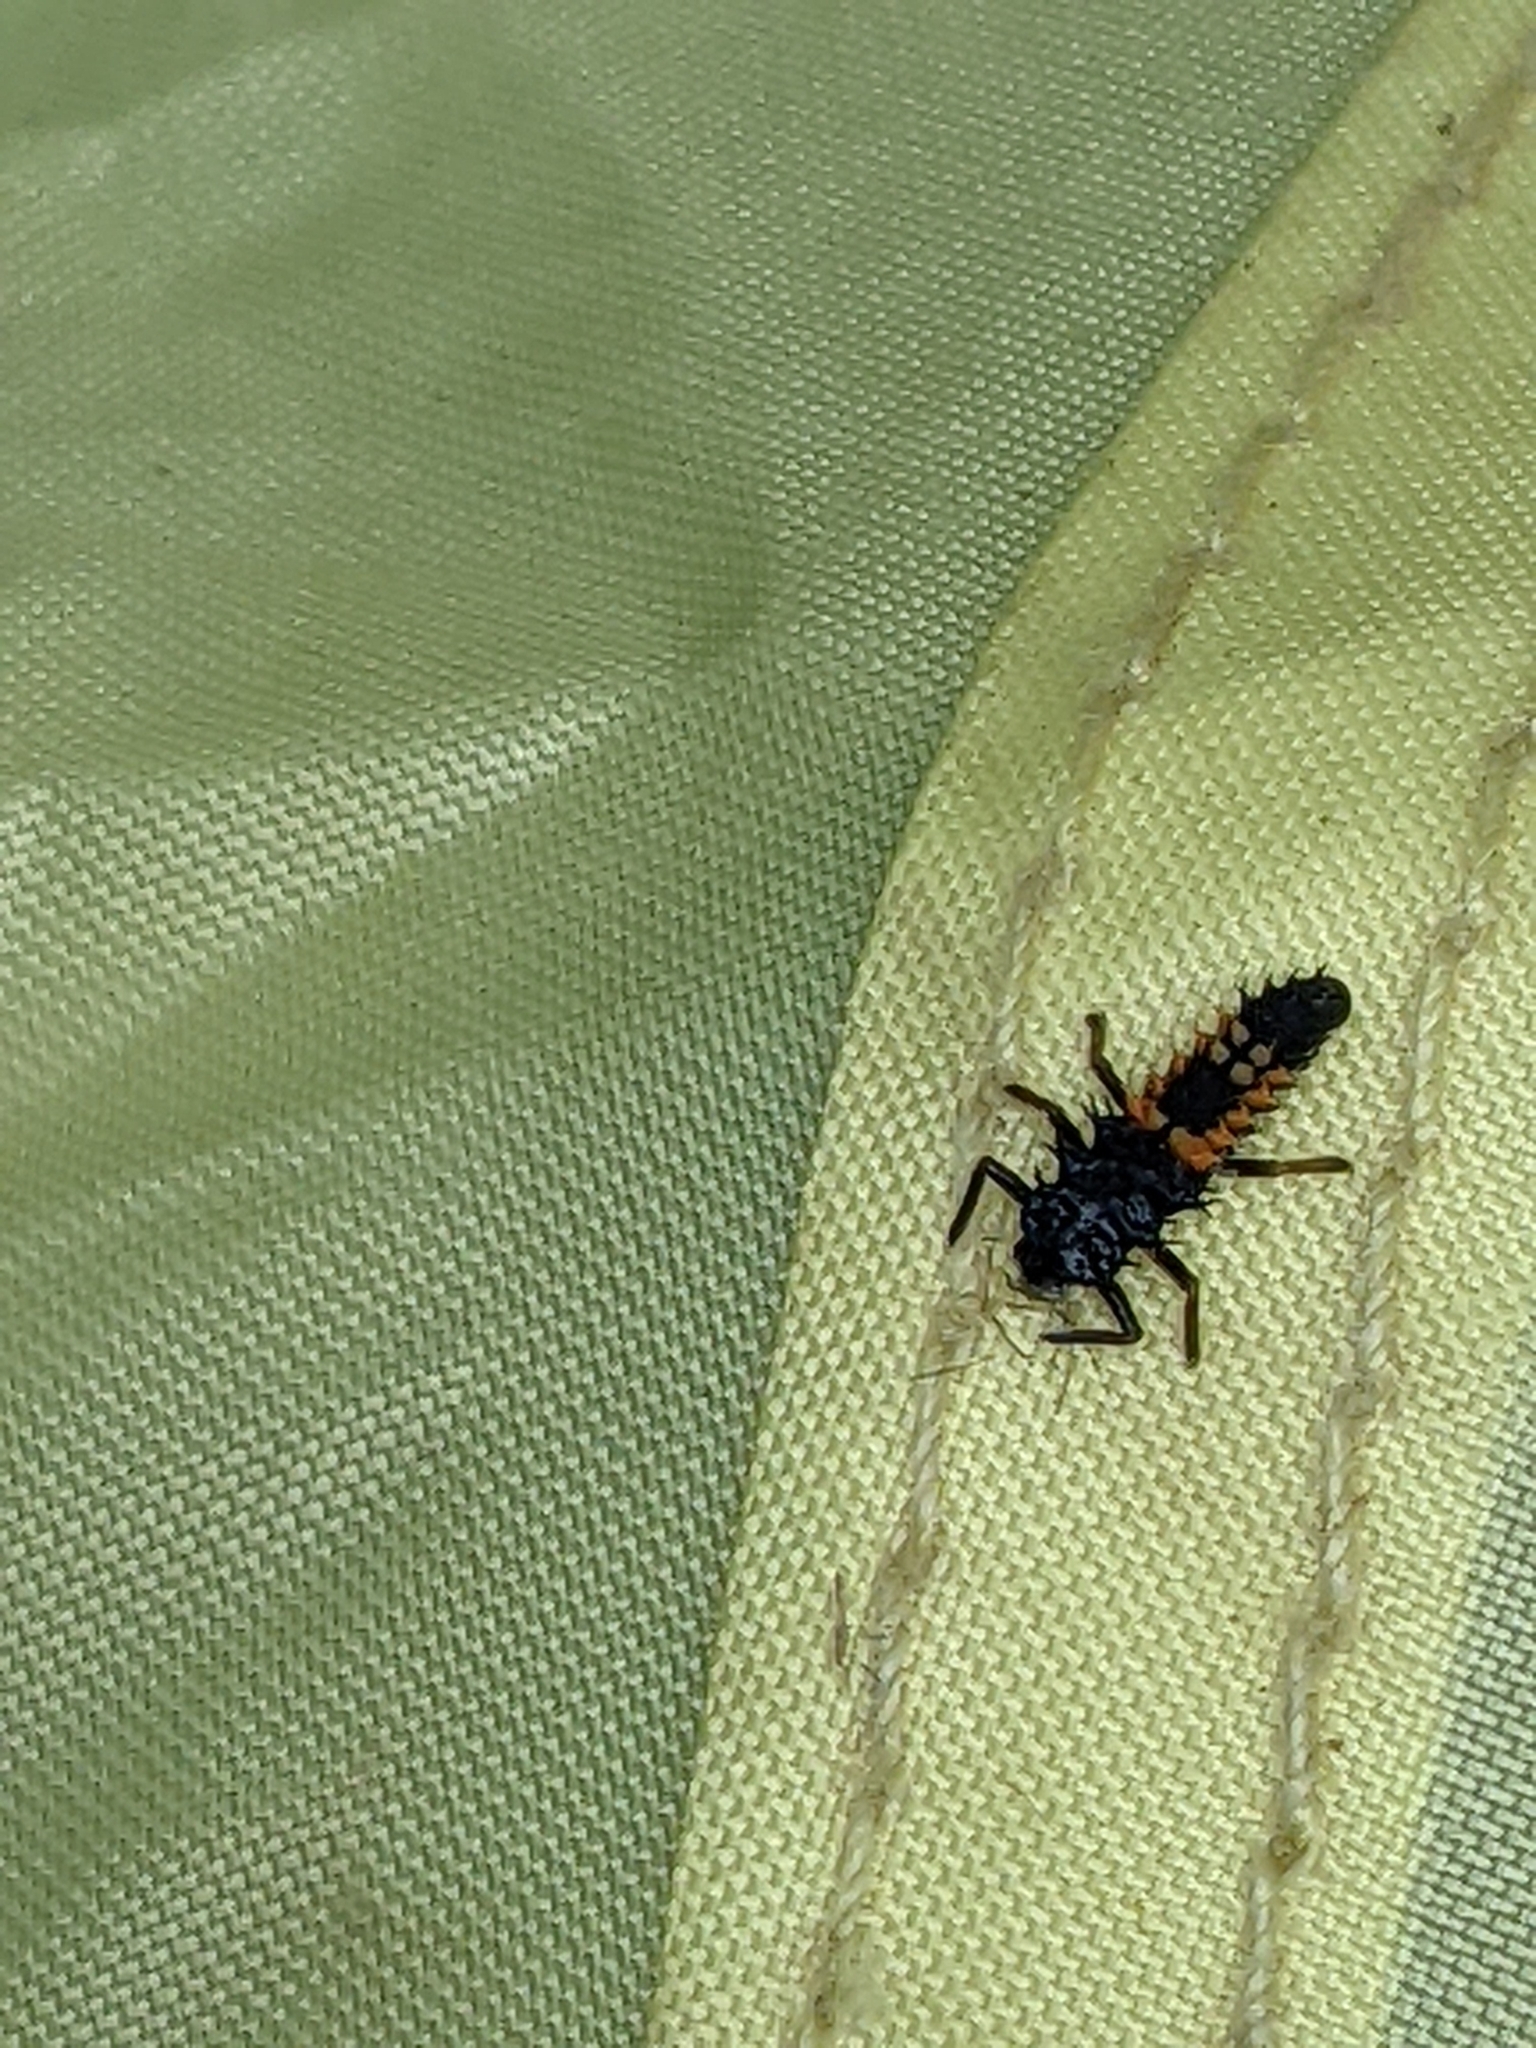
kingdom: Animalia
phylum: Arthropoda
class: Insecta
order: Coleoptera
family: Coccinellidae
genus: Harmonia
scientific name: Harmonia axyridis
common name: Harlequin ladybird
